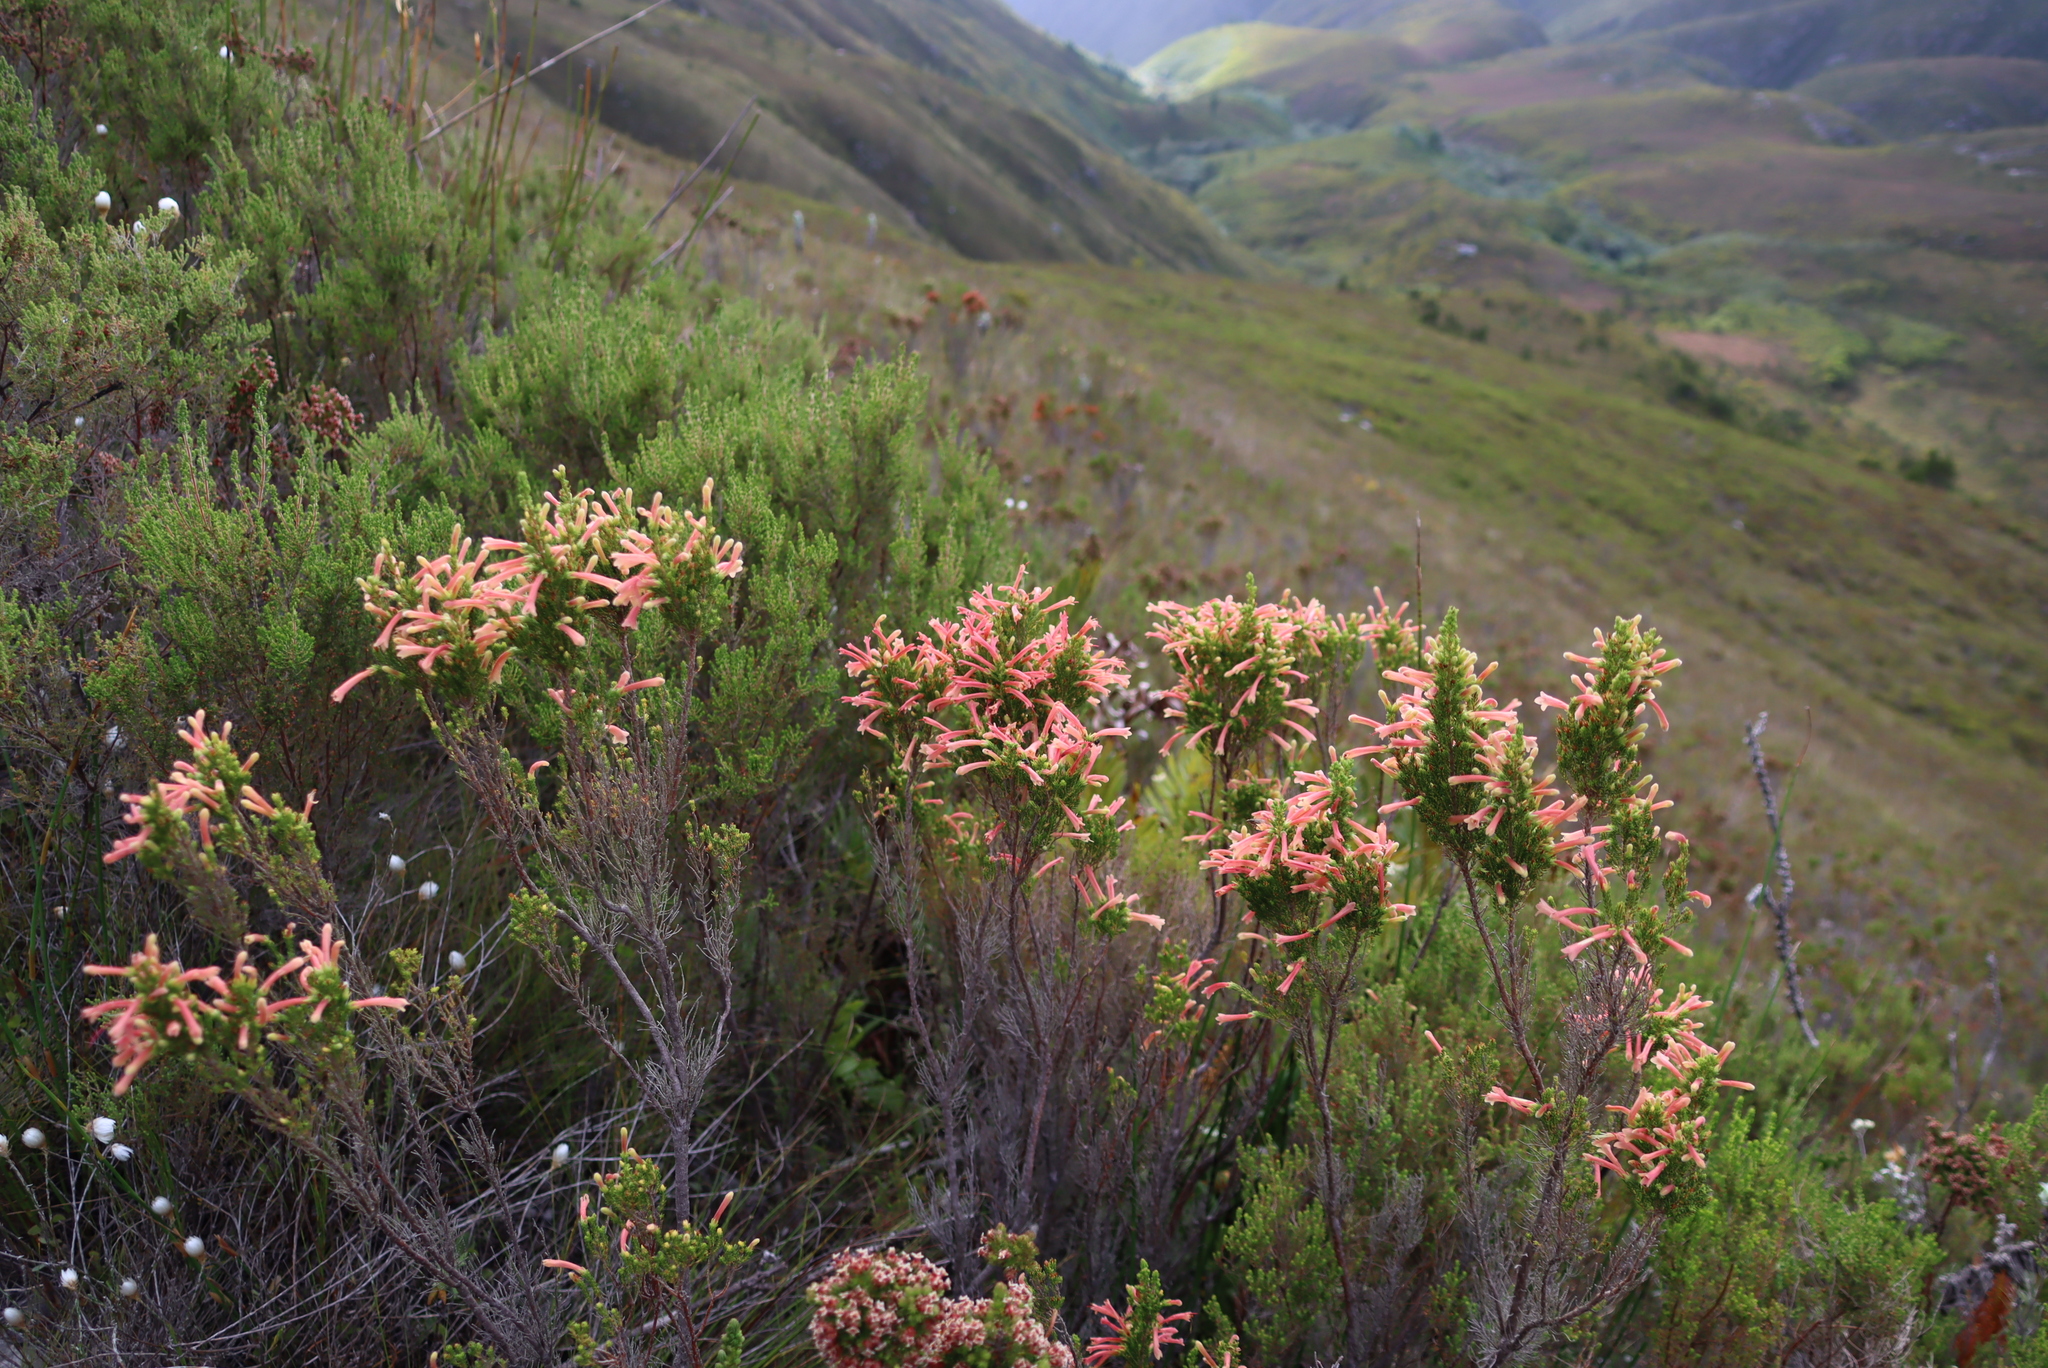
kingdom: Plantae
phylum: Tracheophyta
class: Magnoliopsida
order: Ericales
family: Ericaceae
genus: Erica
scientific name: Erica curviflora
